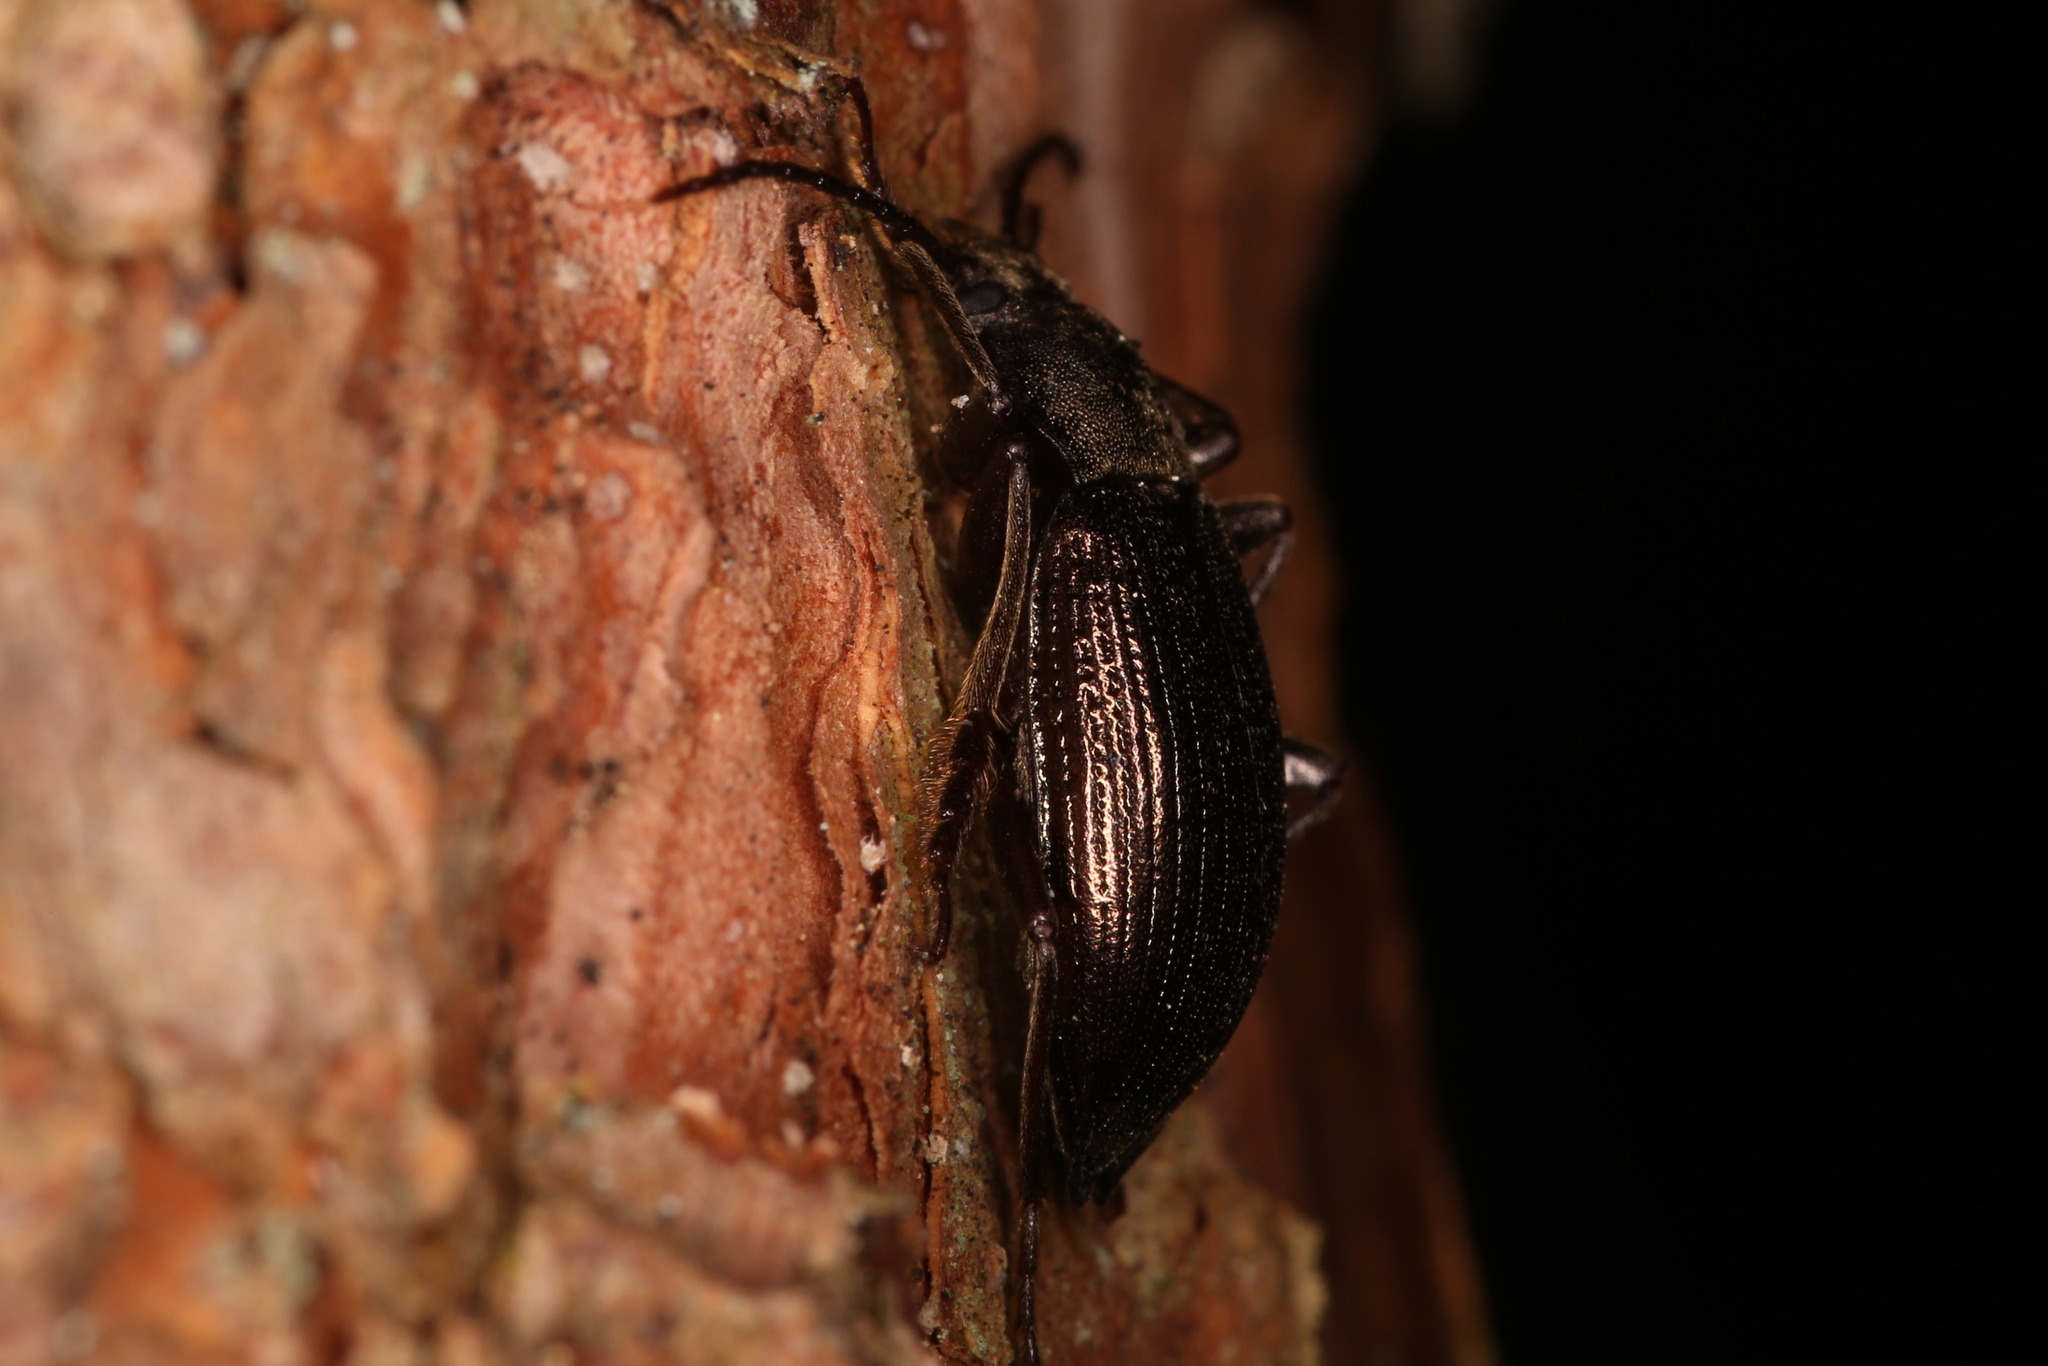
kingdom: Animalia
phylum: Arthropoda
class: Insecta
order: Coleoptera
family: Tenebrionidae
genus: Stenomax
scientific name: Stenomax aeneus
